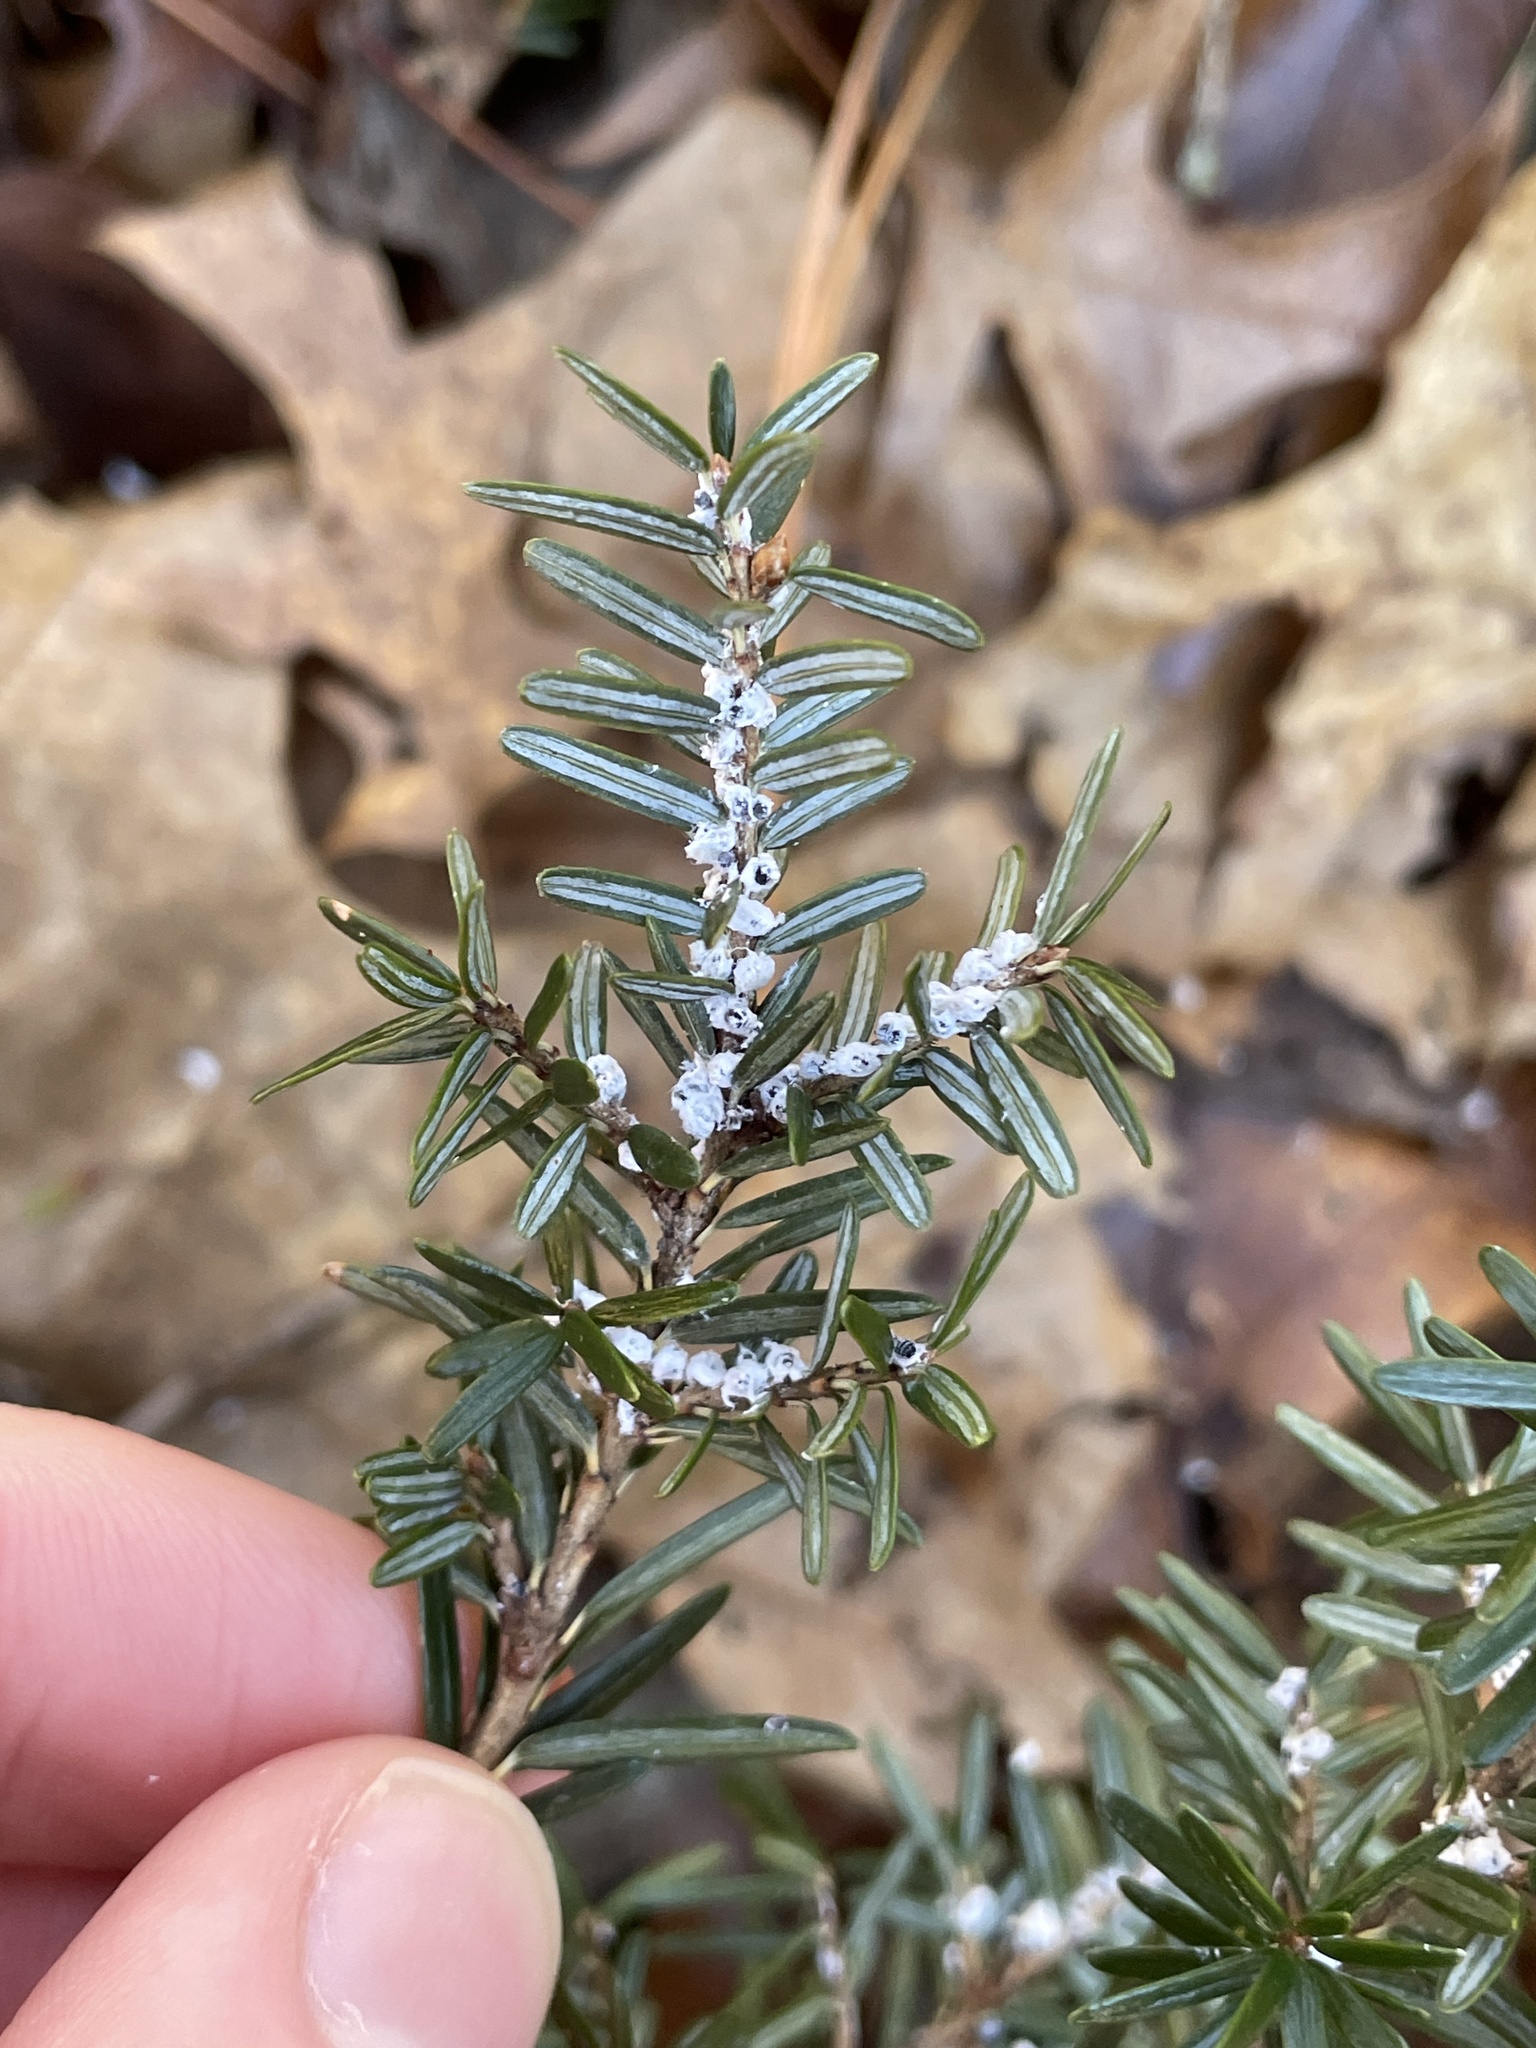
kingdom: Animalia
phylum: Arthropoda
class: Insecta
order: Hemiptera
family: Adelgidae
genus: Adelges
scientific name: Adelges tsugae
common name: Hemlock woolly adelgid
